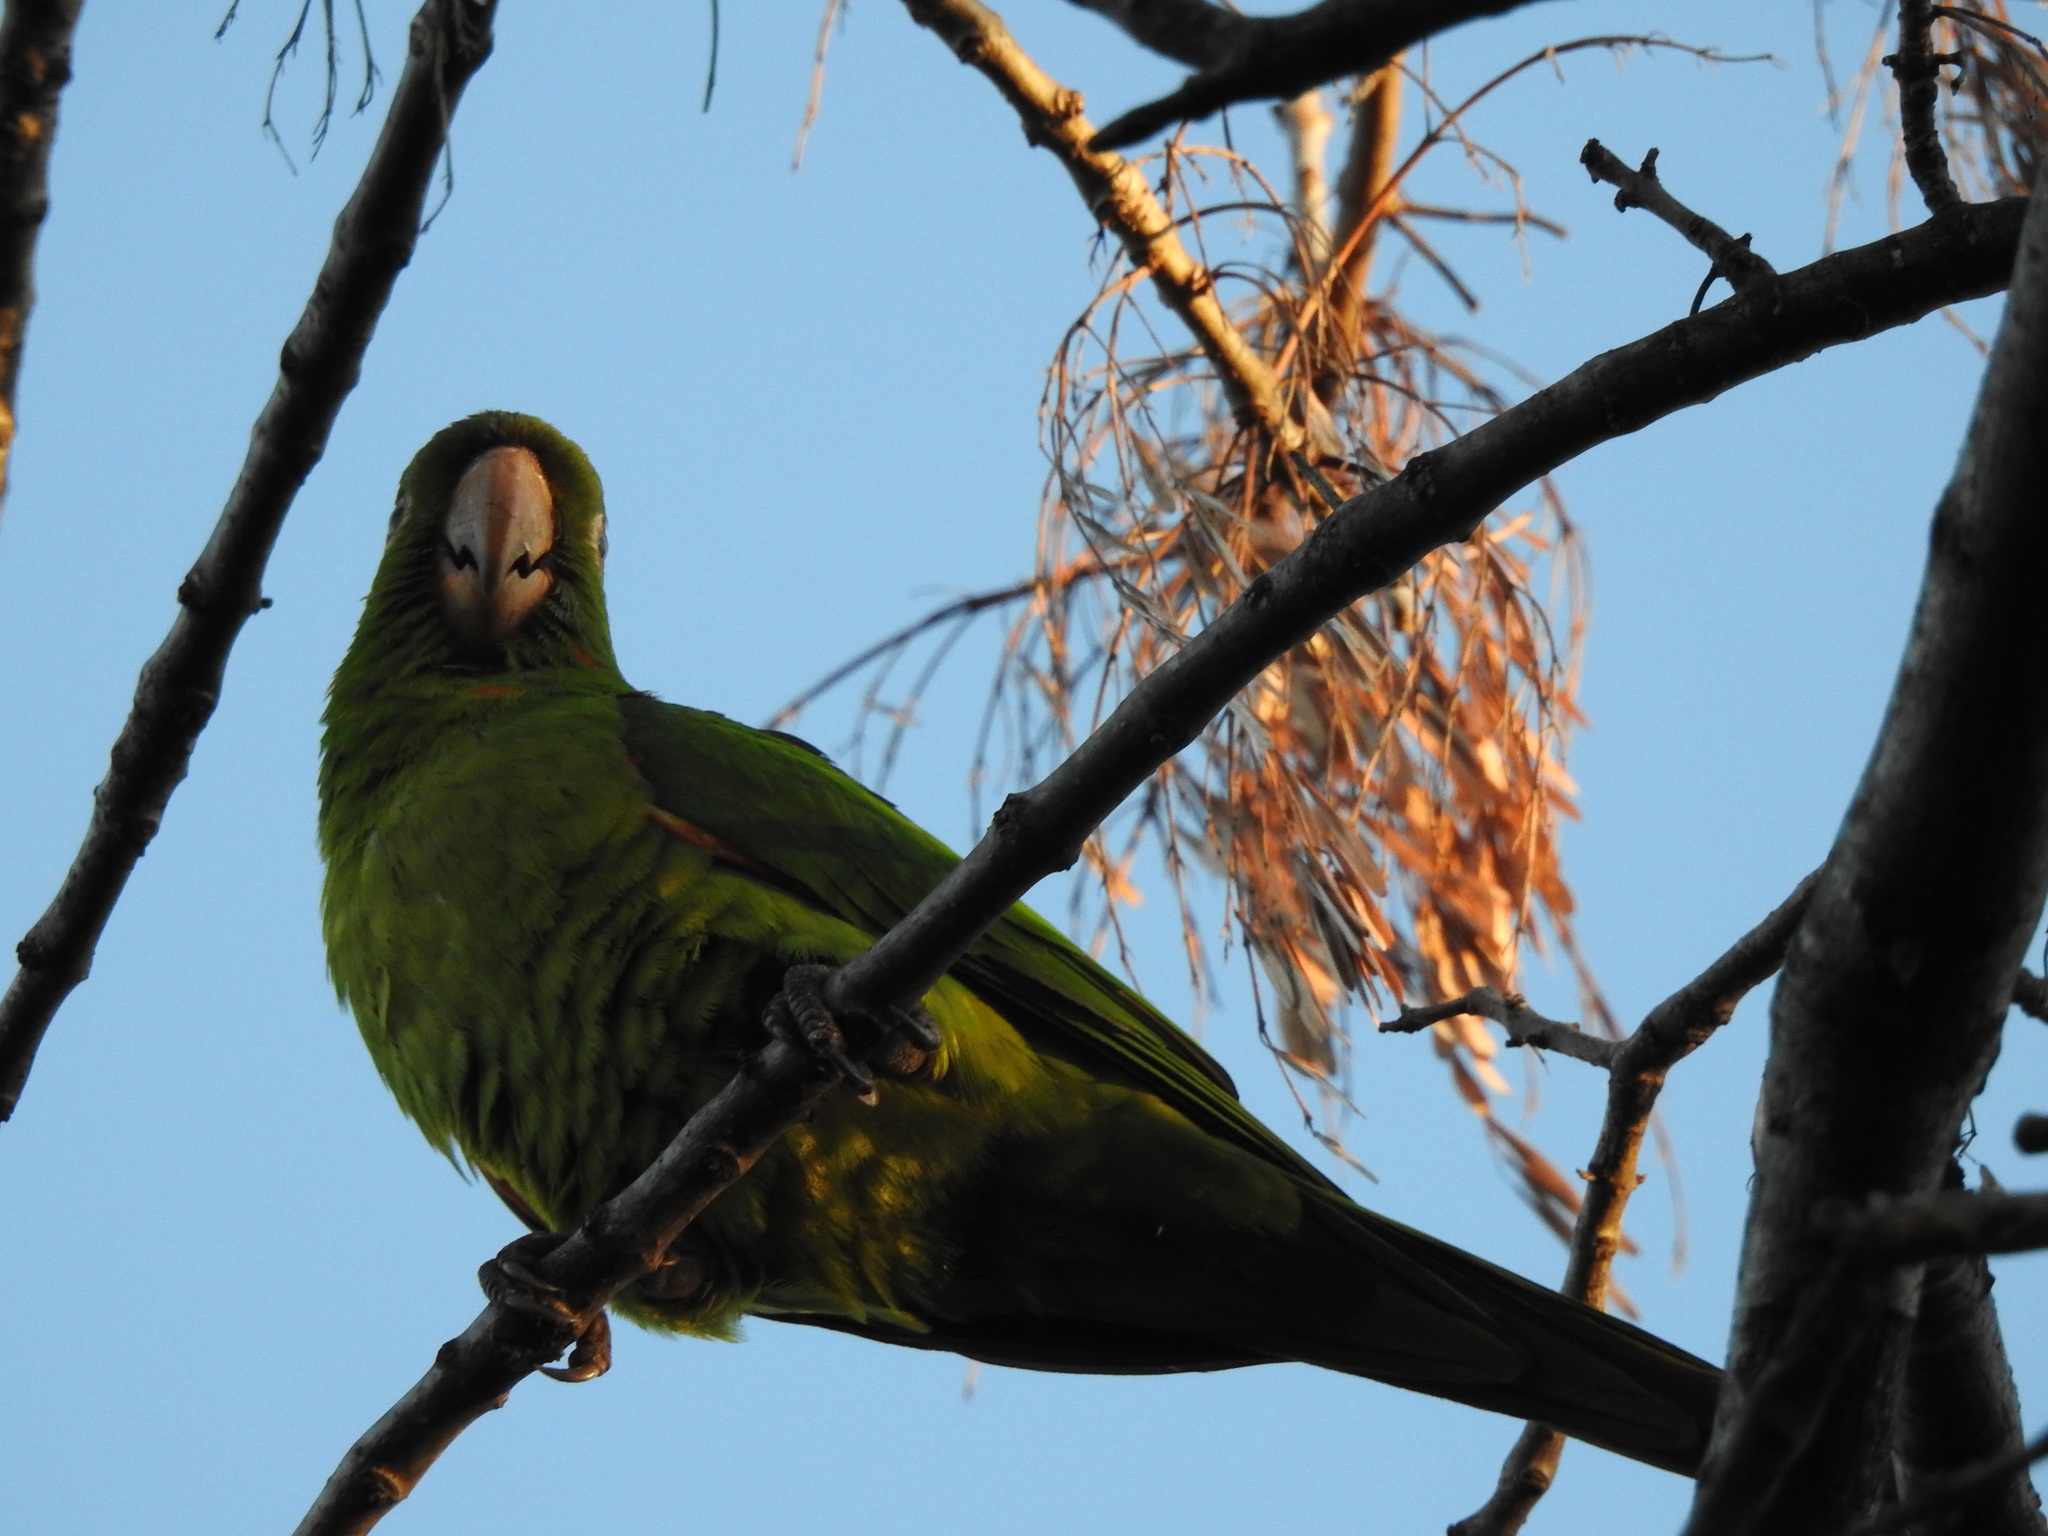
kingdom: Animalia
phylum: Chordata
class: Aves
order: Psittaciformes
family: Psittacidae
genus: Aratinga
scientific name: Aratinga leucophthalma
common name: White-eyed parakeet
